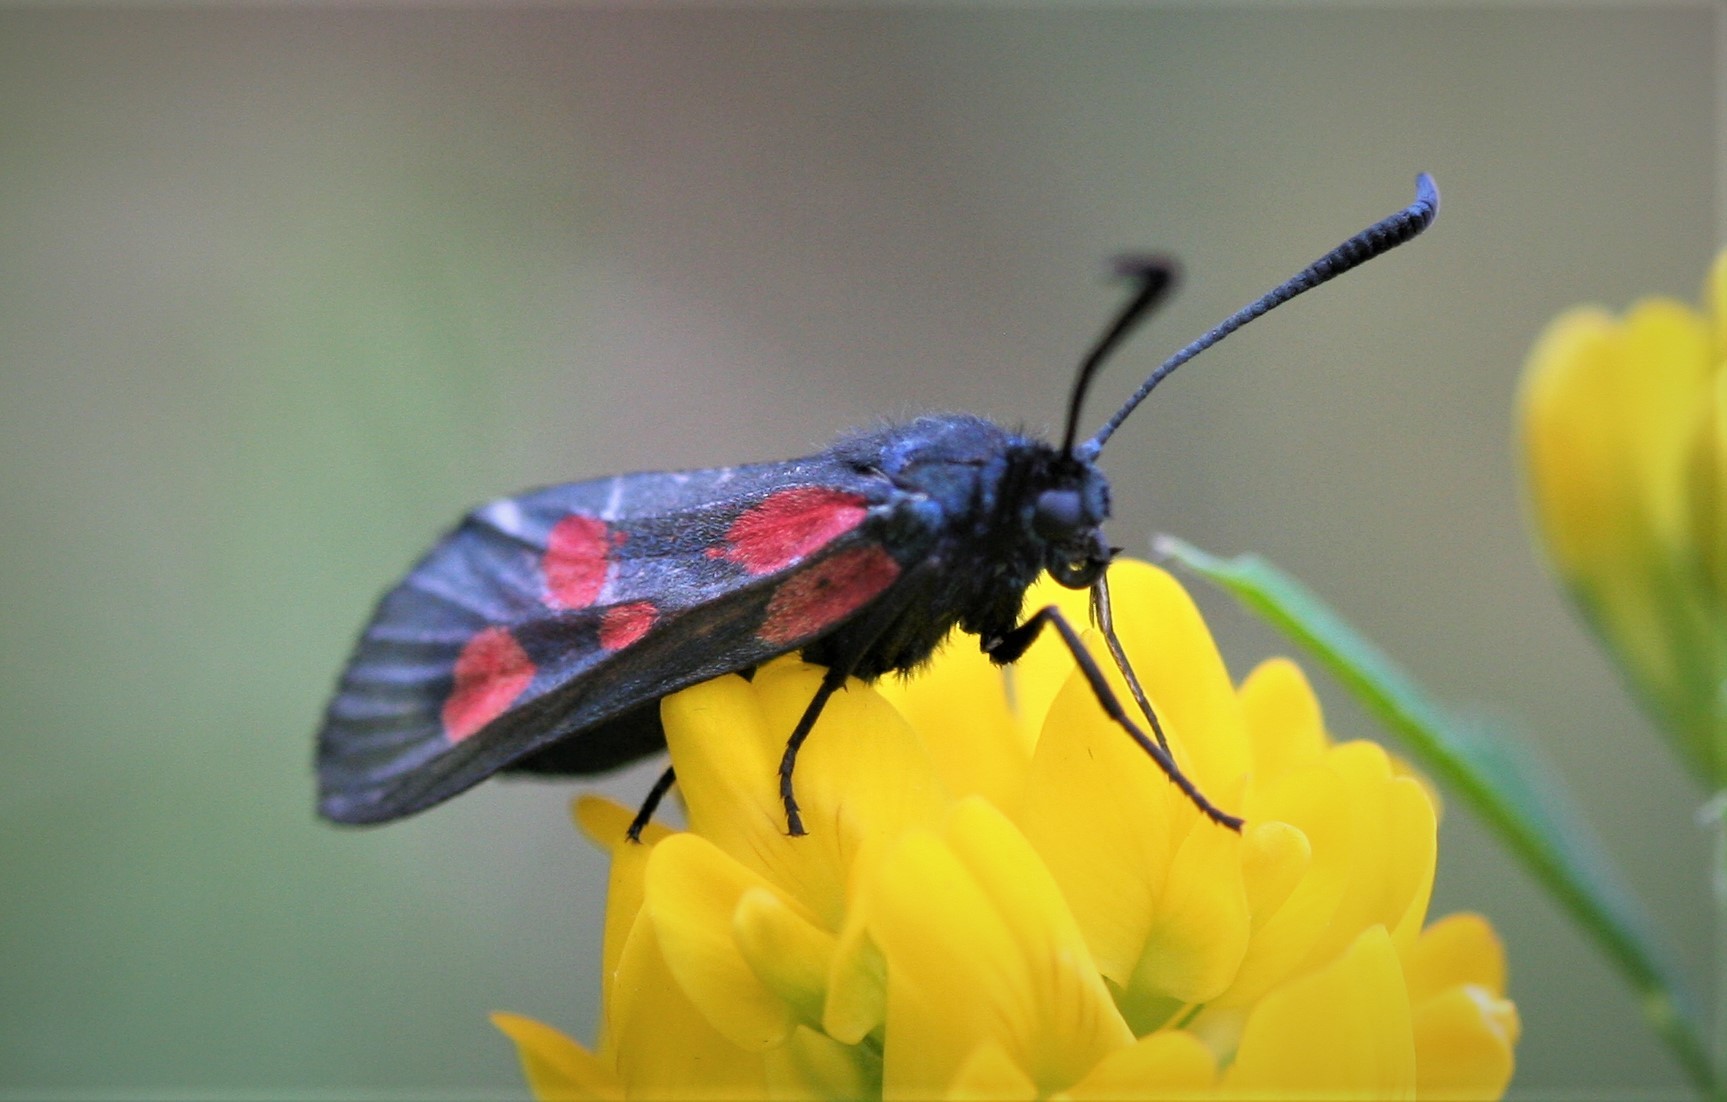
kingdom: Animalia
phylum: Arthropoda
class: Insecta
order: Lepidoptera
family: Zygaenidae
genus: Zygaena
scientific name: Zygaena viciae
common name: New forest burnet
